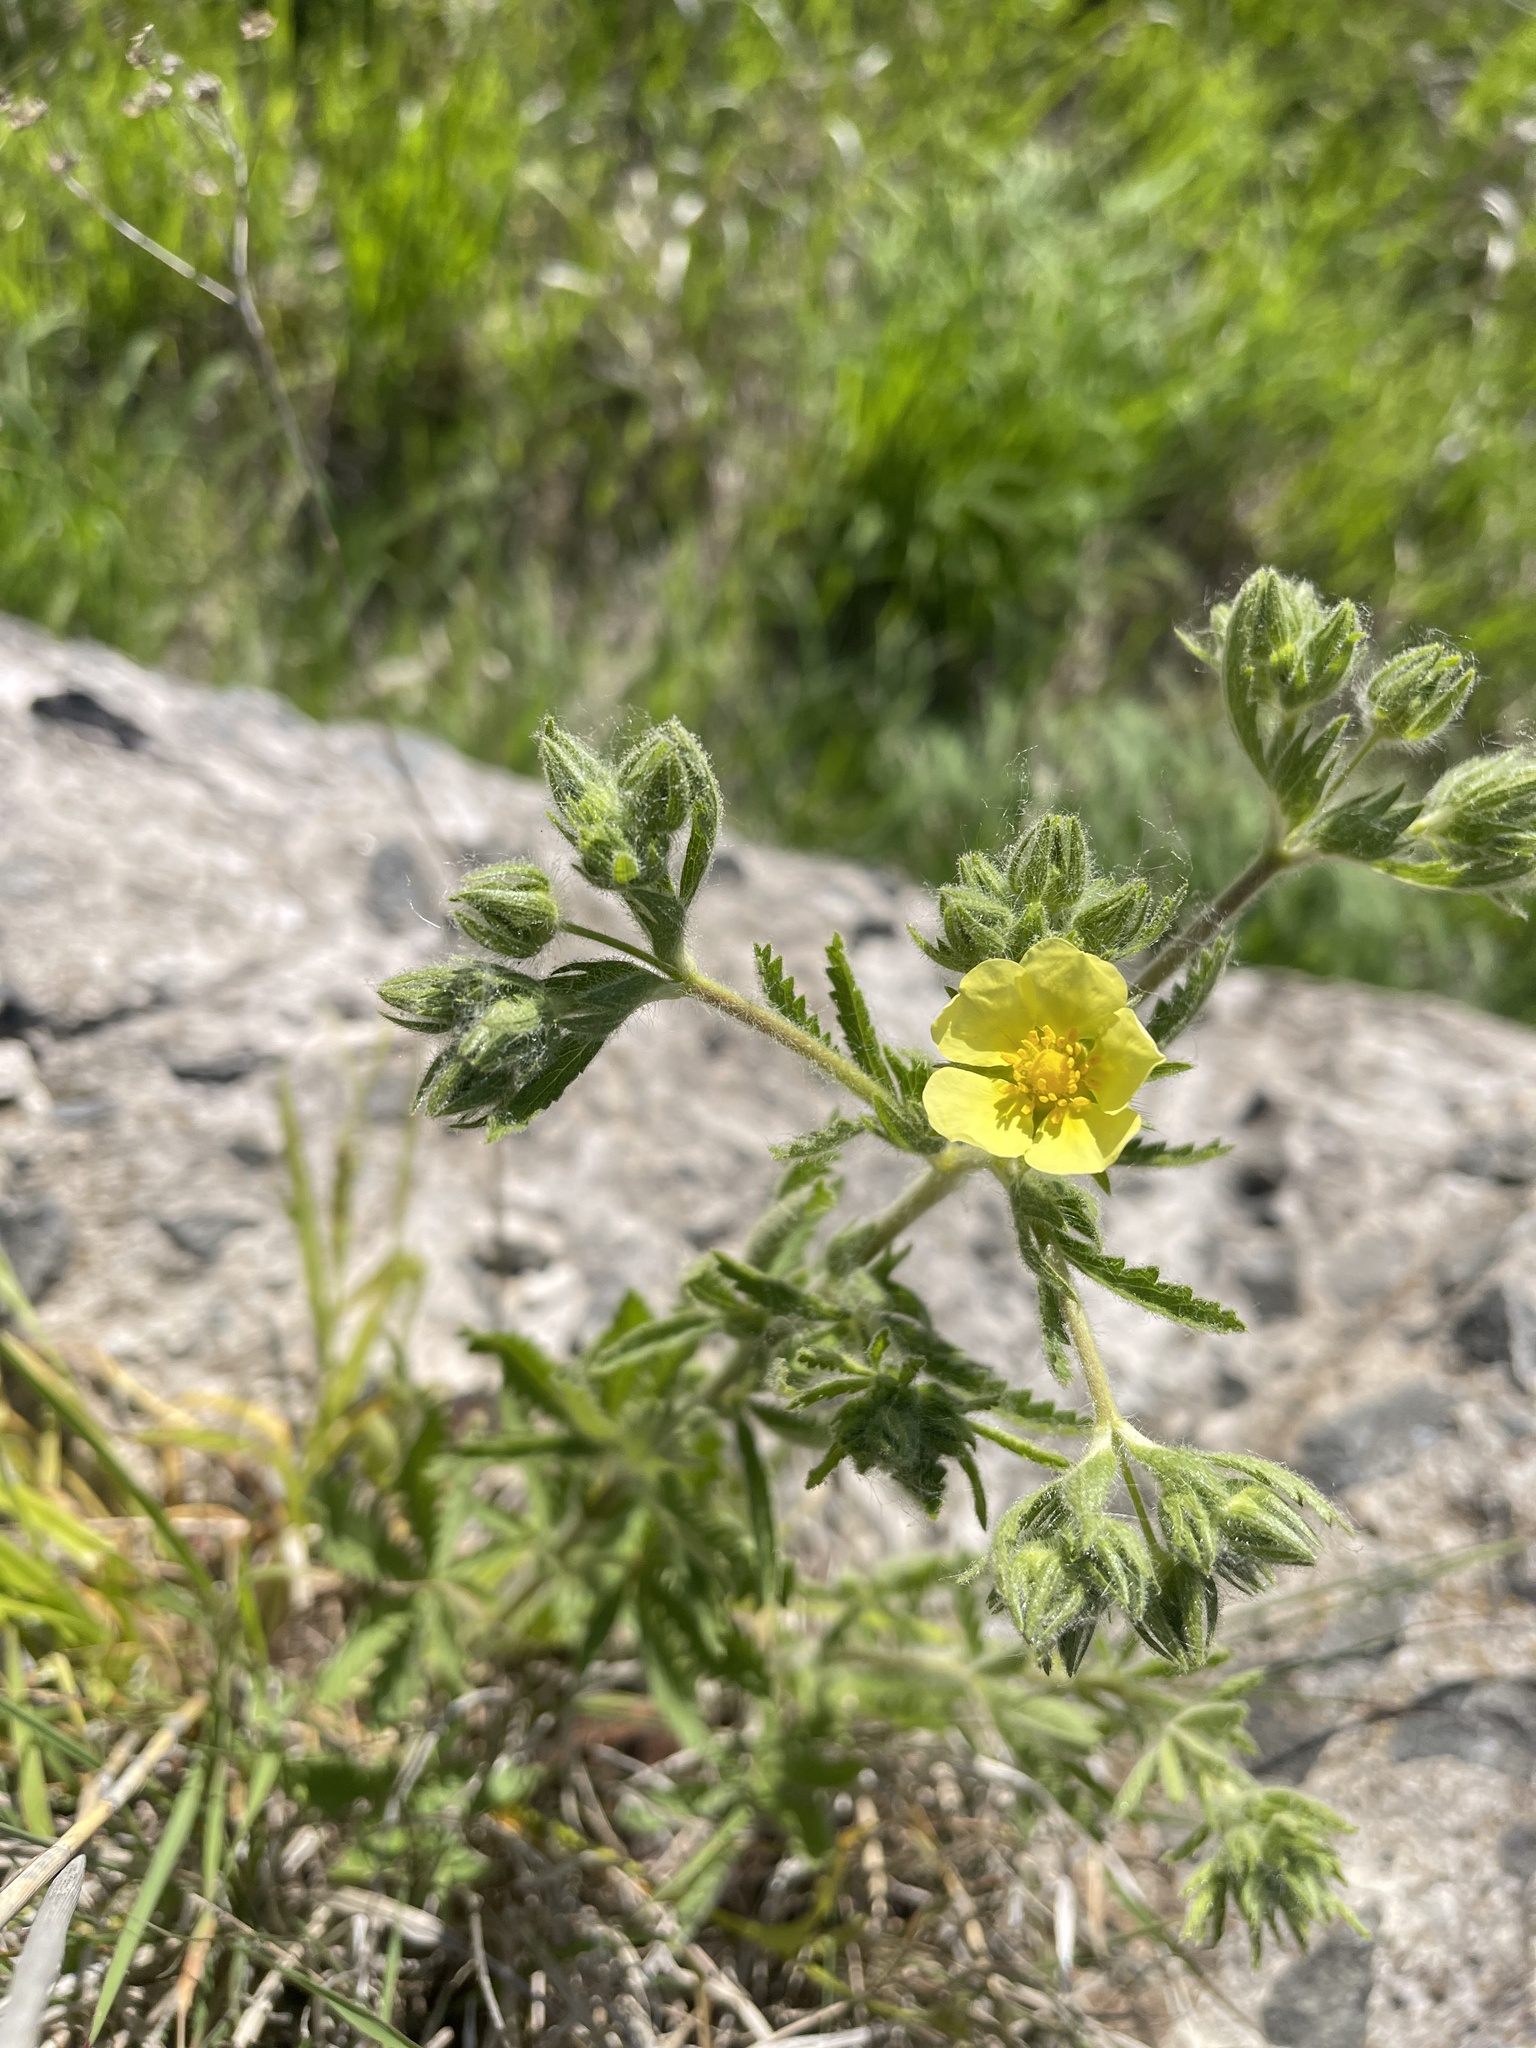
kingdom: Plantae
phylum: Tracheophyta
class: Magnoliopsida
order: Rosales
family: Rosaceae
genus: Potentilla
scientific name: Potentilla recta
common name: Sulphur cinquefoil
